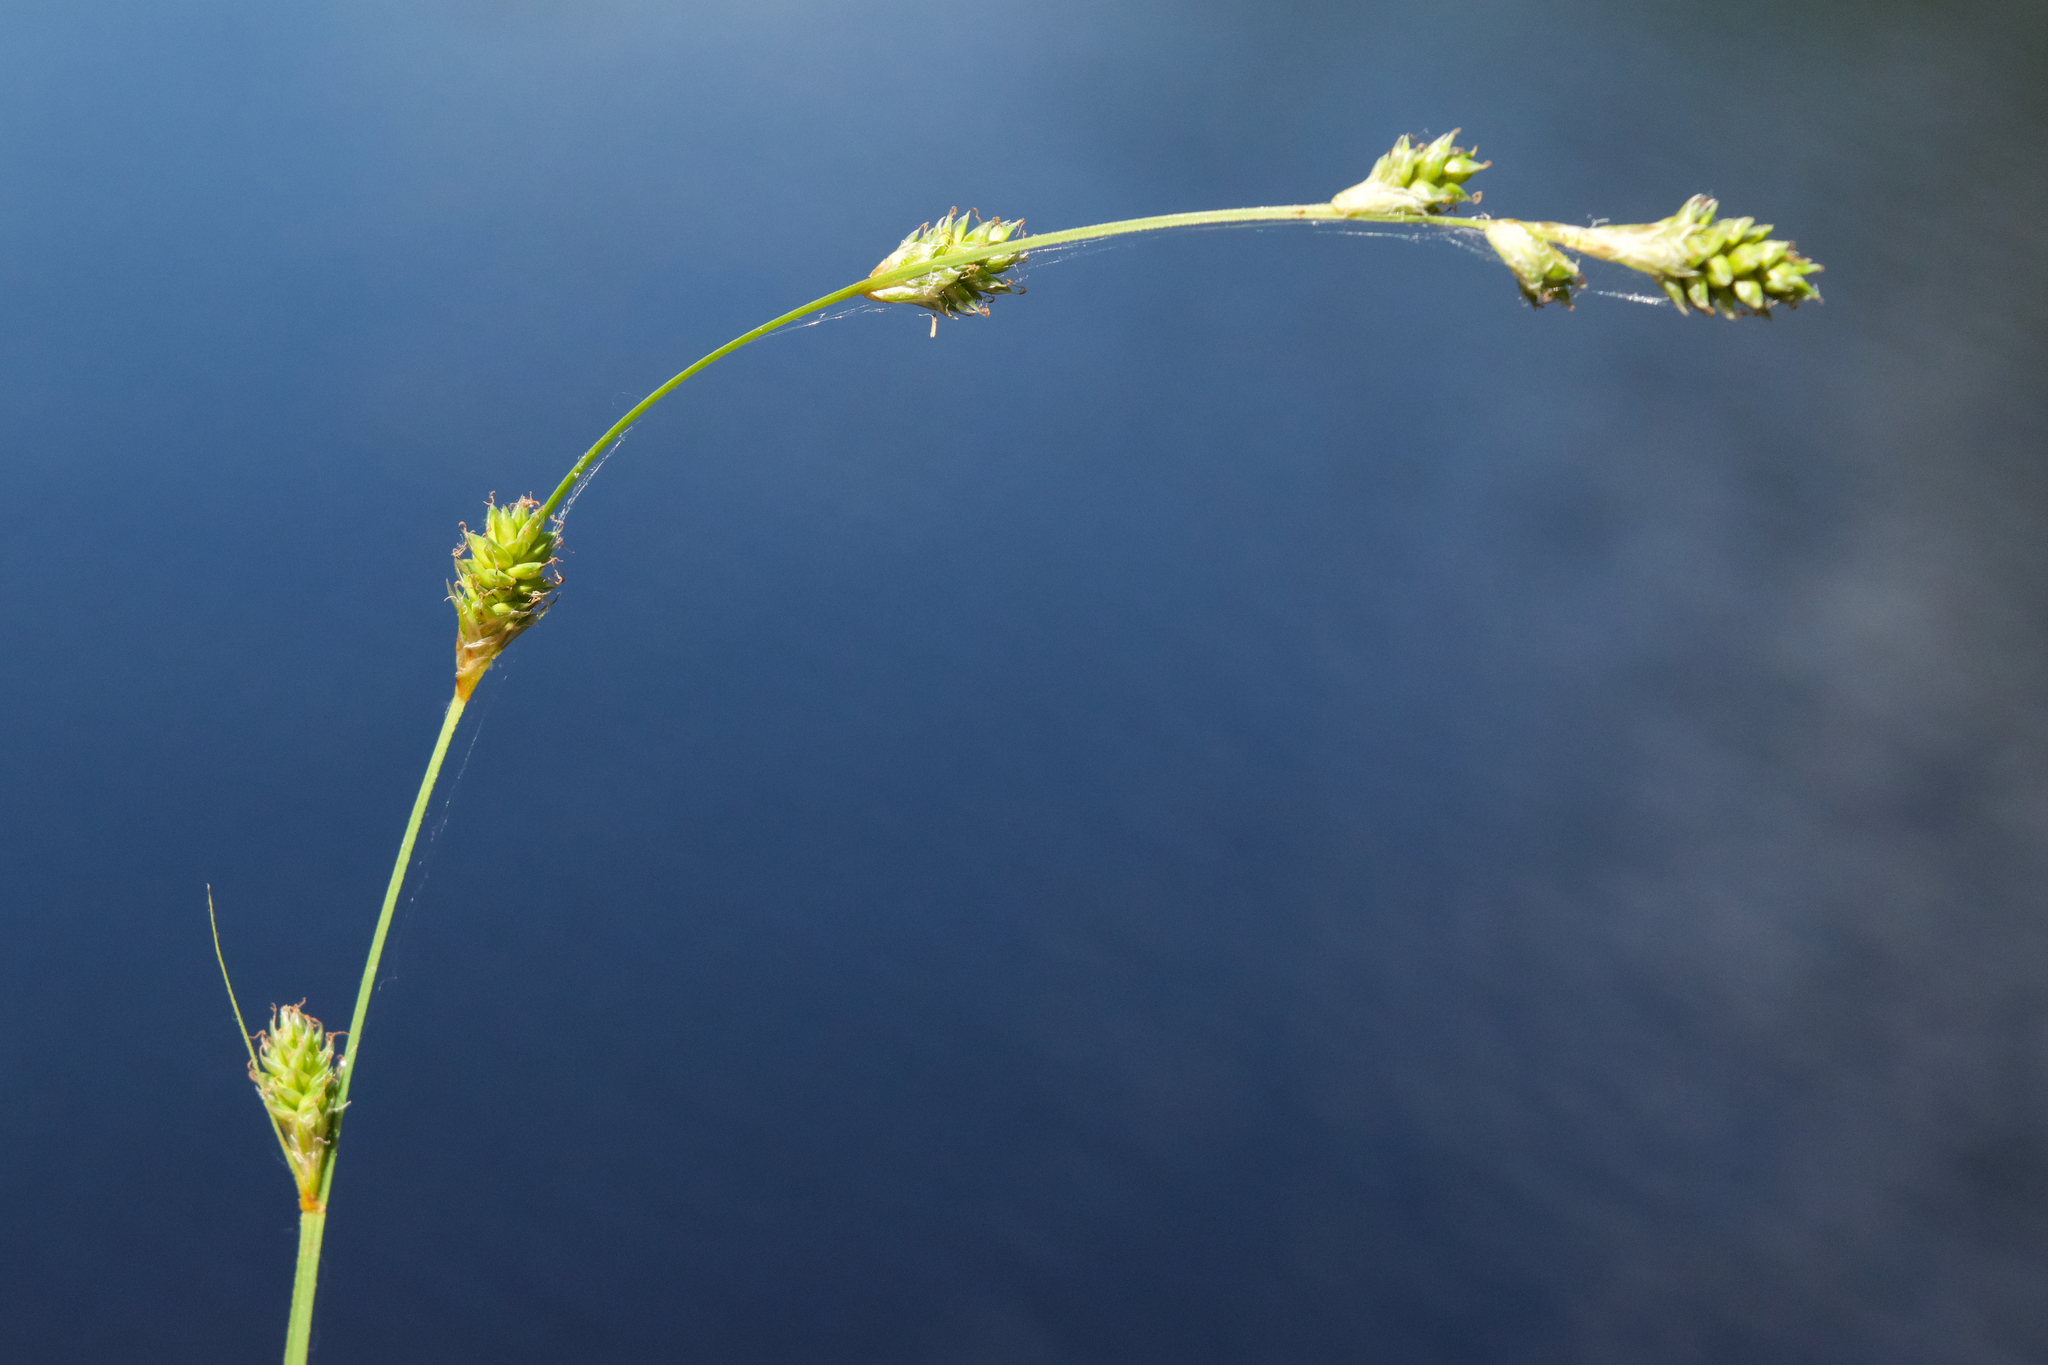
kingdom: Plantae
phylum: Tracheophyta
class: Liliopsida
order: Poales
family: Cyperaceae
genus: Carex
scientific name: Carex canescens
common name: White sedge
